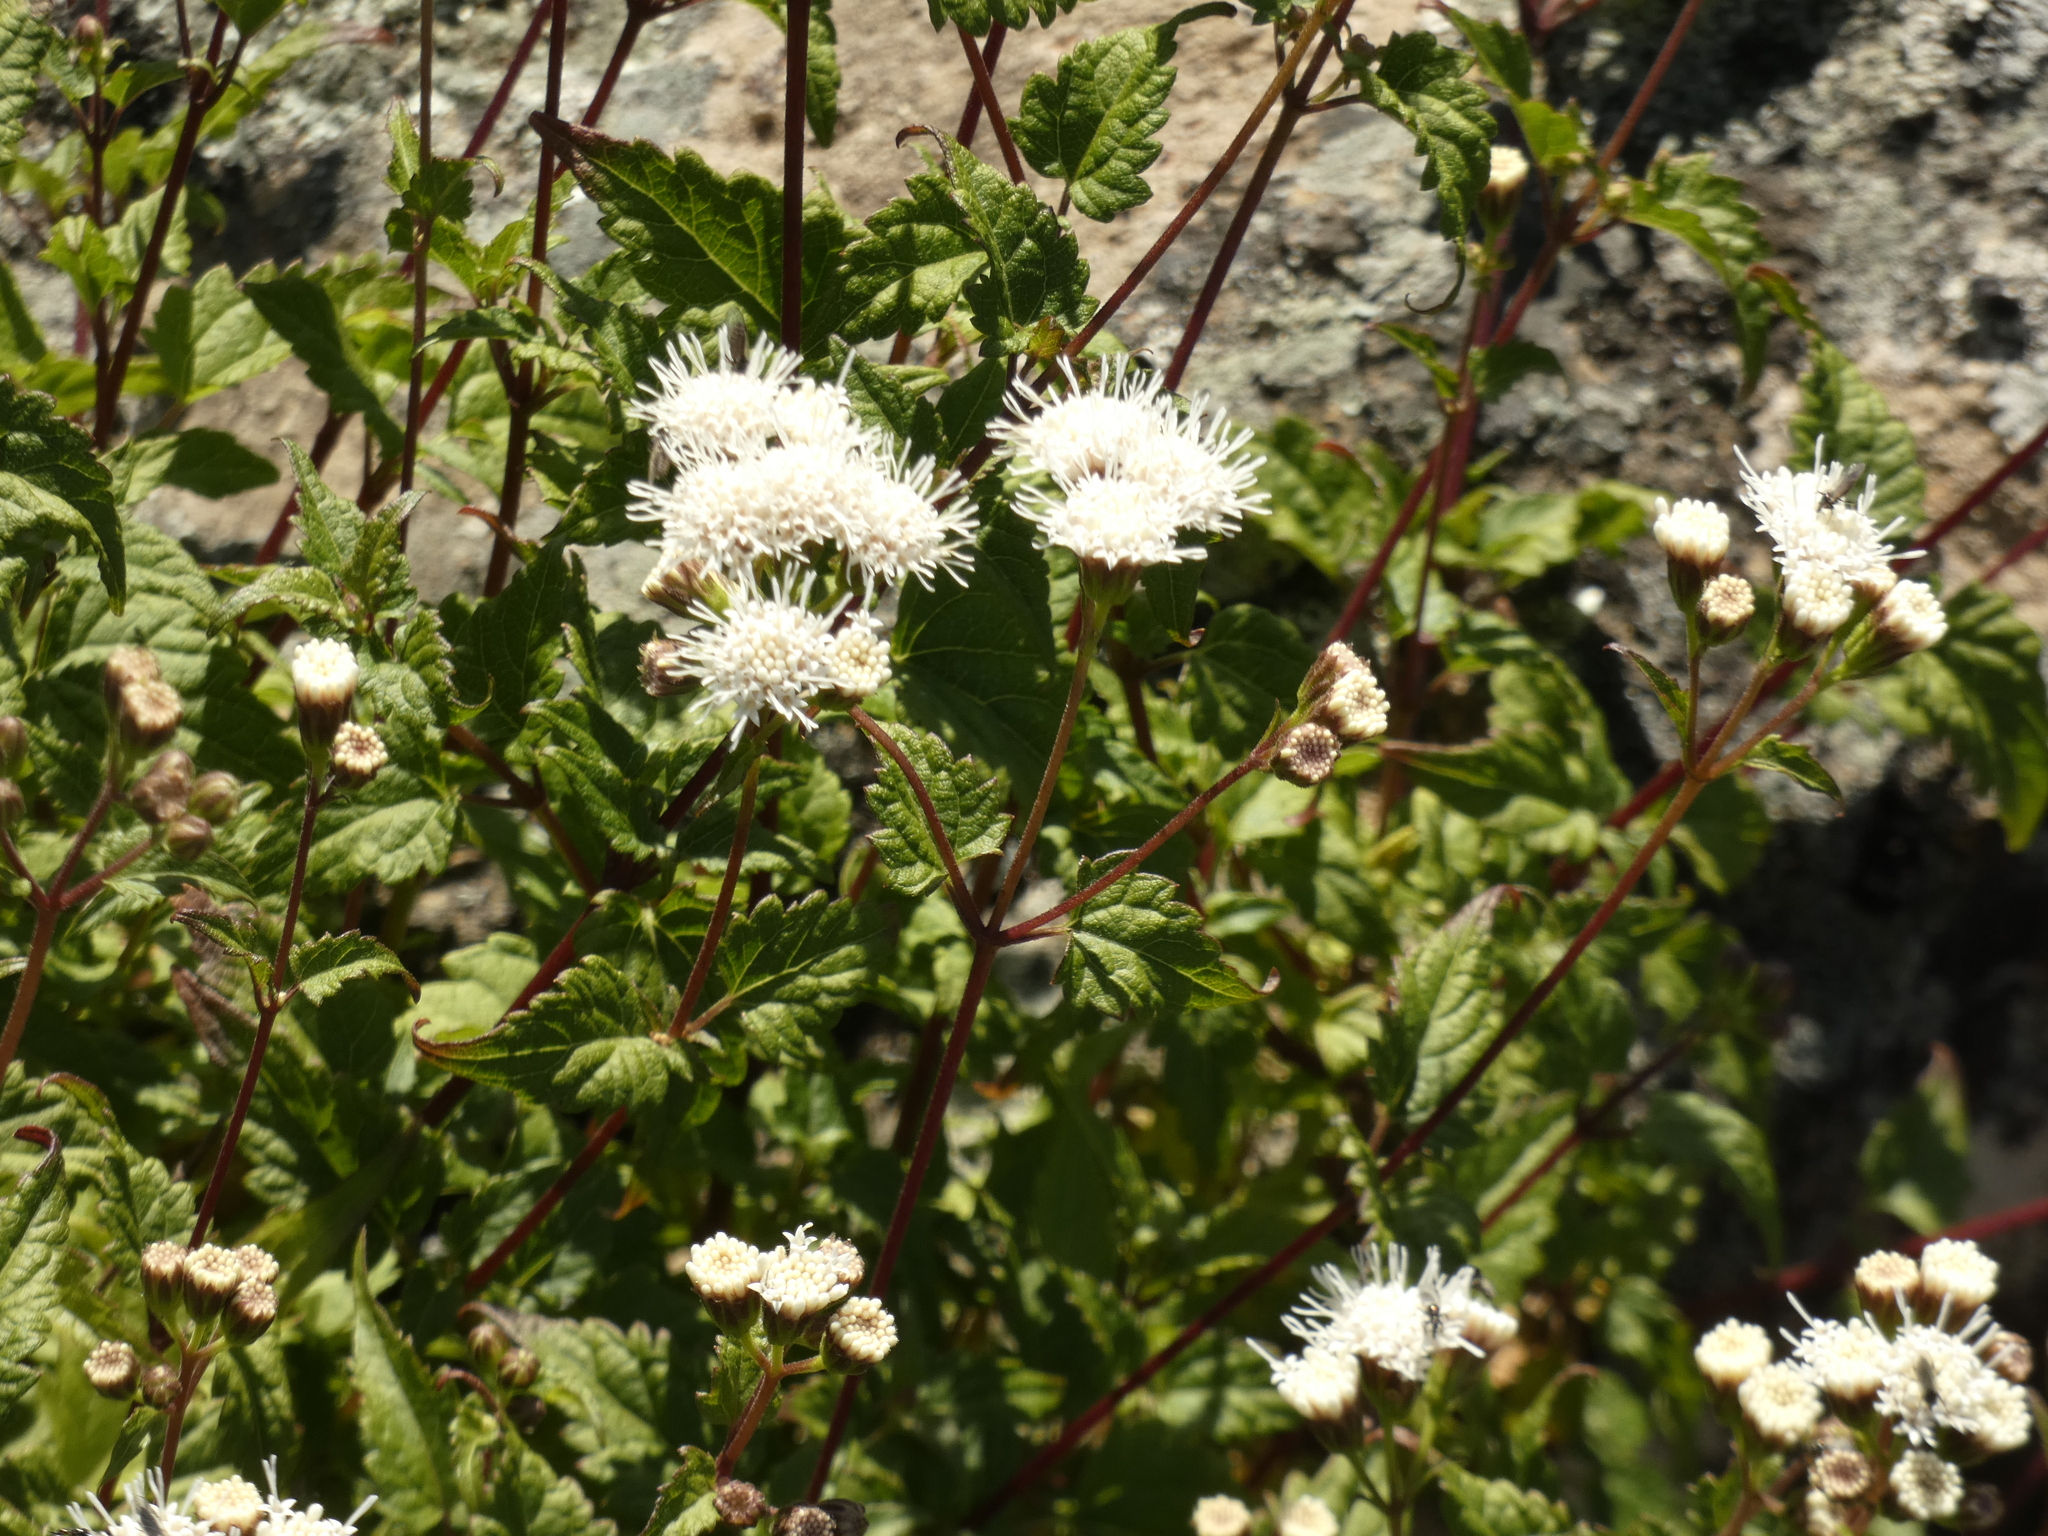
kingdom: Plantae
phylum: Tracheophyta
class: Magnoliopsida
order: Asterales
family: Asteraceae
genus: Ageratina
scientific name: Ageratina glechonophylla
